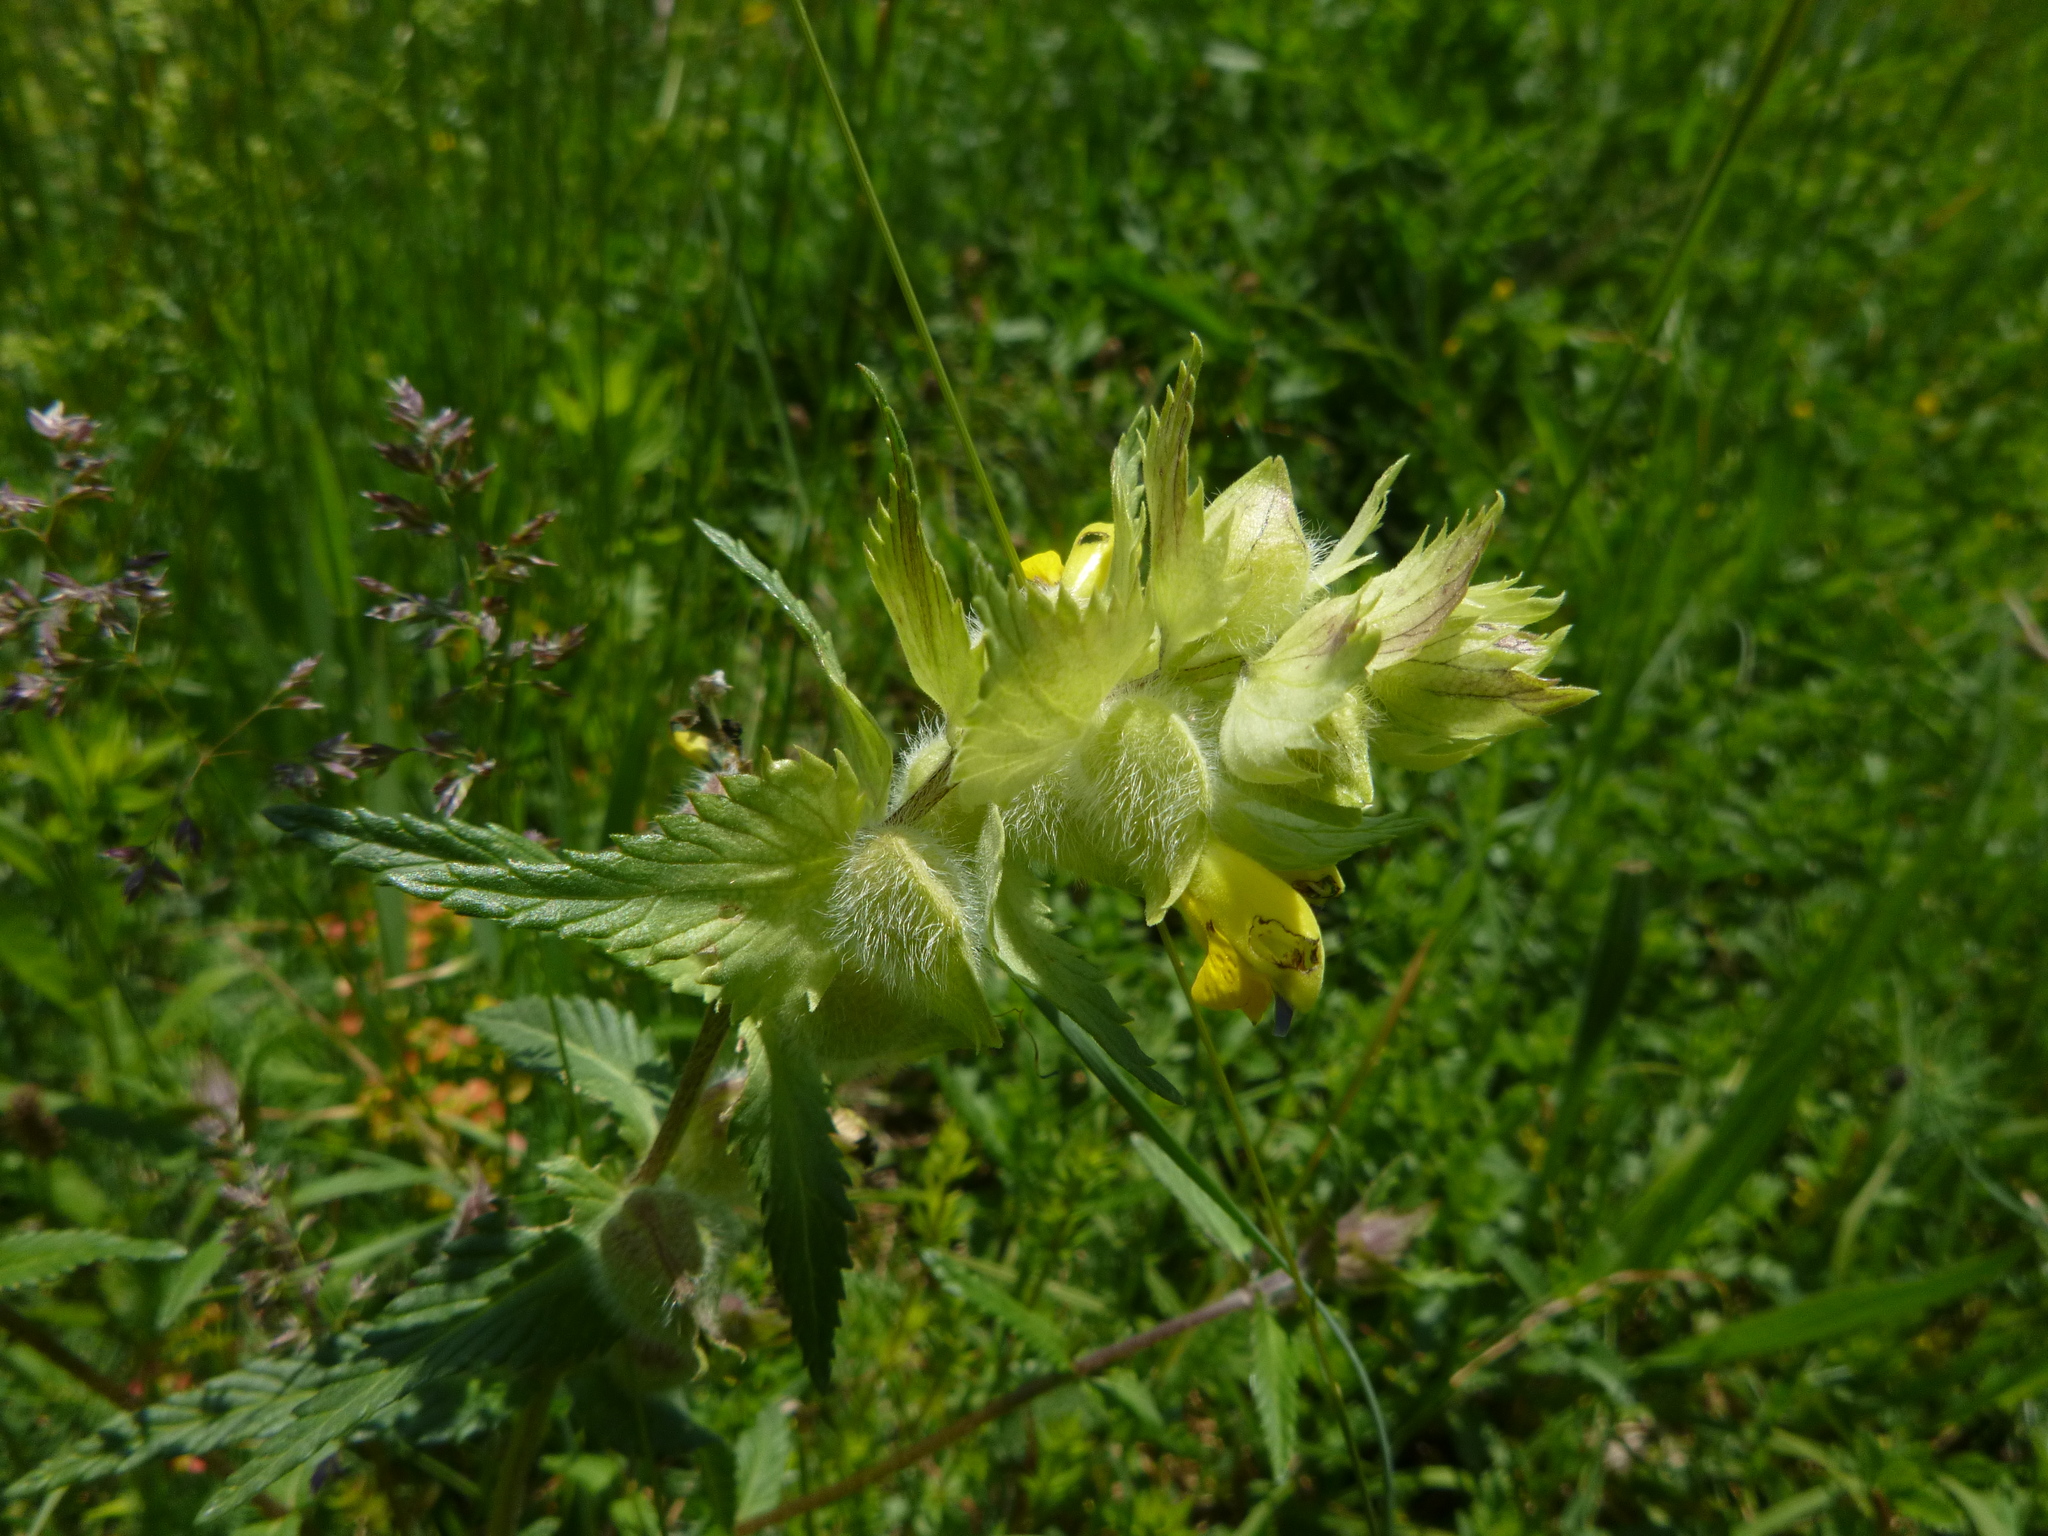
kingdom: Plantae
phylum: Tracheophyta
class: Magnoliopsida
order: Lamiales
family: Orobanchaceae
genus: Rhinanthus
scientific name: Rhinanthus alectorolophus
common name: Greater yellow-rattle
